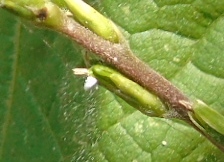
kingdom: Plantae
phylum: Tracheophyta
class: Magnoliopsida
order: Caryophyllales
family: Phytolaccaceae
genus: Petiveria
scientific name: Petiveria alliacea
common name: Garlicweed
